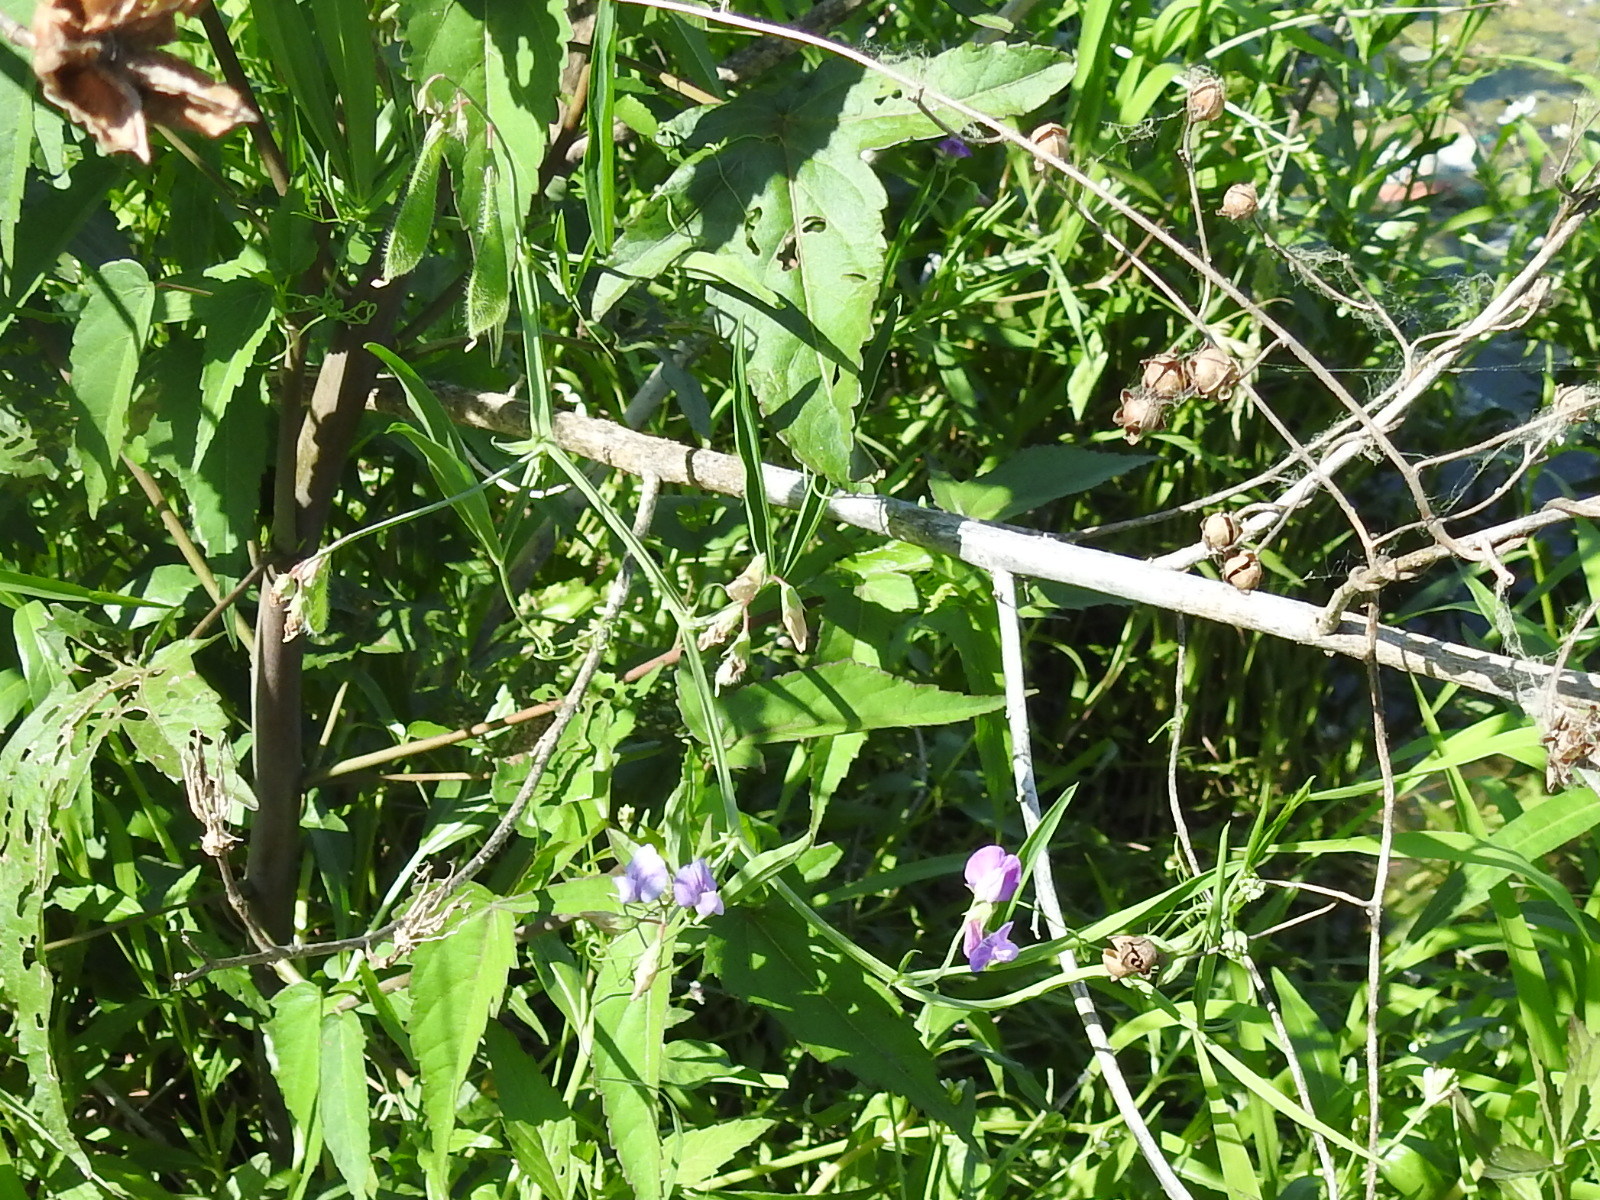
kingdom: Plantae
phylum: Tracheophyta
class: Magnoliopsida
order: Fabales
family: Fabaceae
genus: Lathyrus
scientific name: Lathyrus hirsutus
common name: Hairy vetchling
